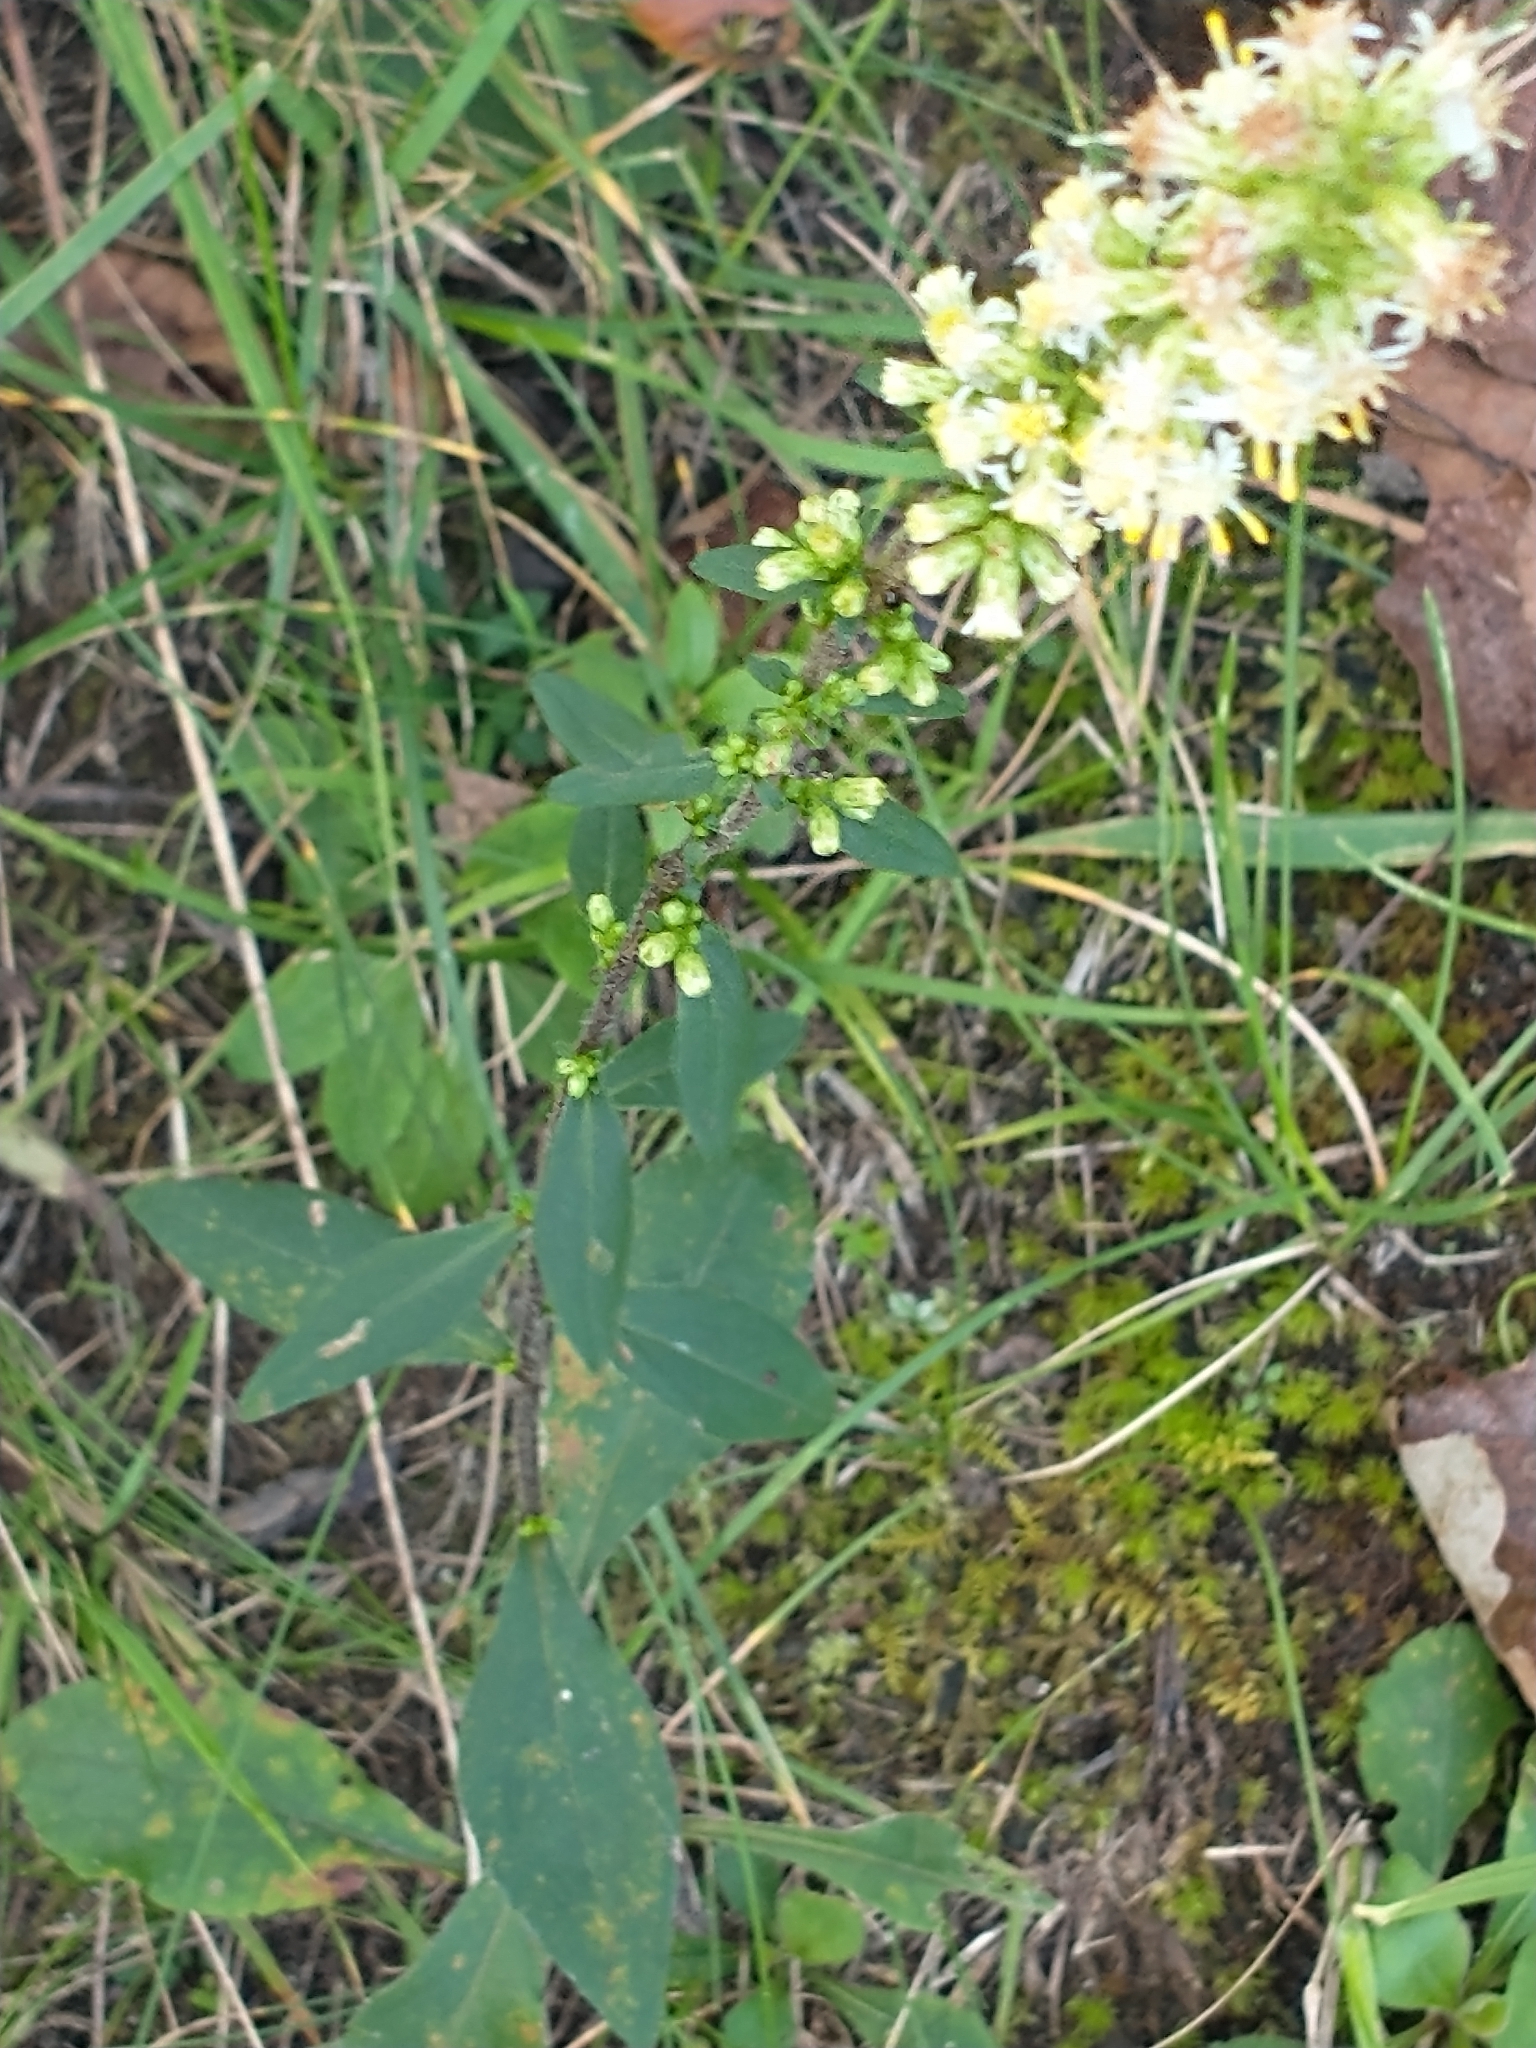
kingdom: Plantae
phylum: Tracheophyta
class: Magnoliopsida
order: Asterales
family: Asteraceae
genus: Solidago
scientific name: Solidago bicolor
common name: Silverrod
